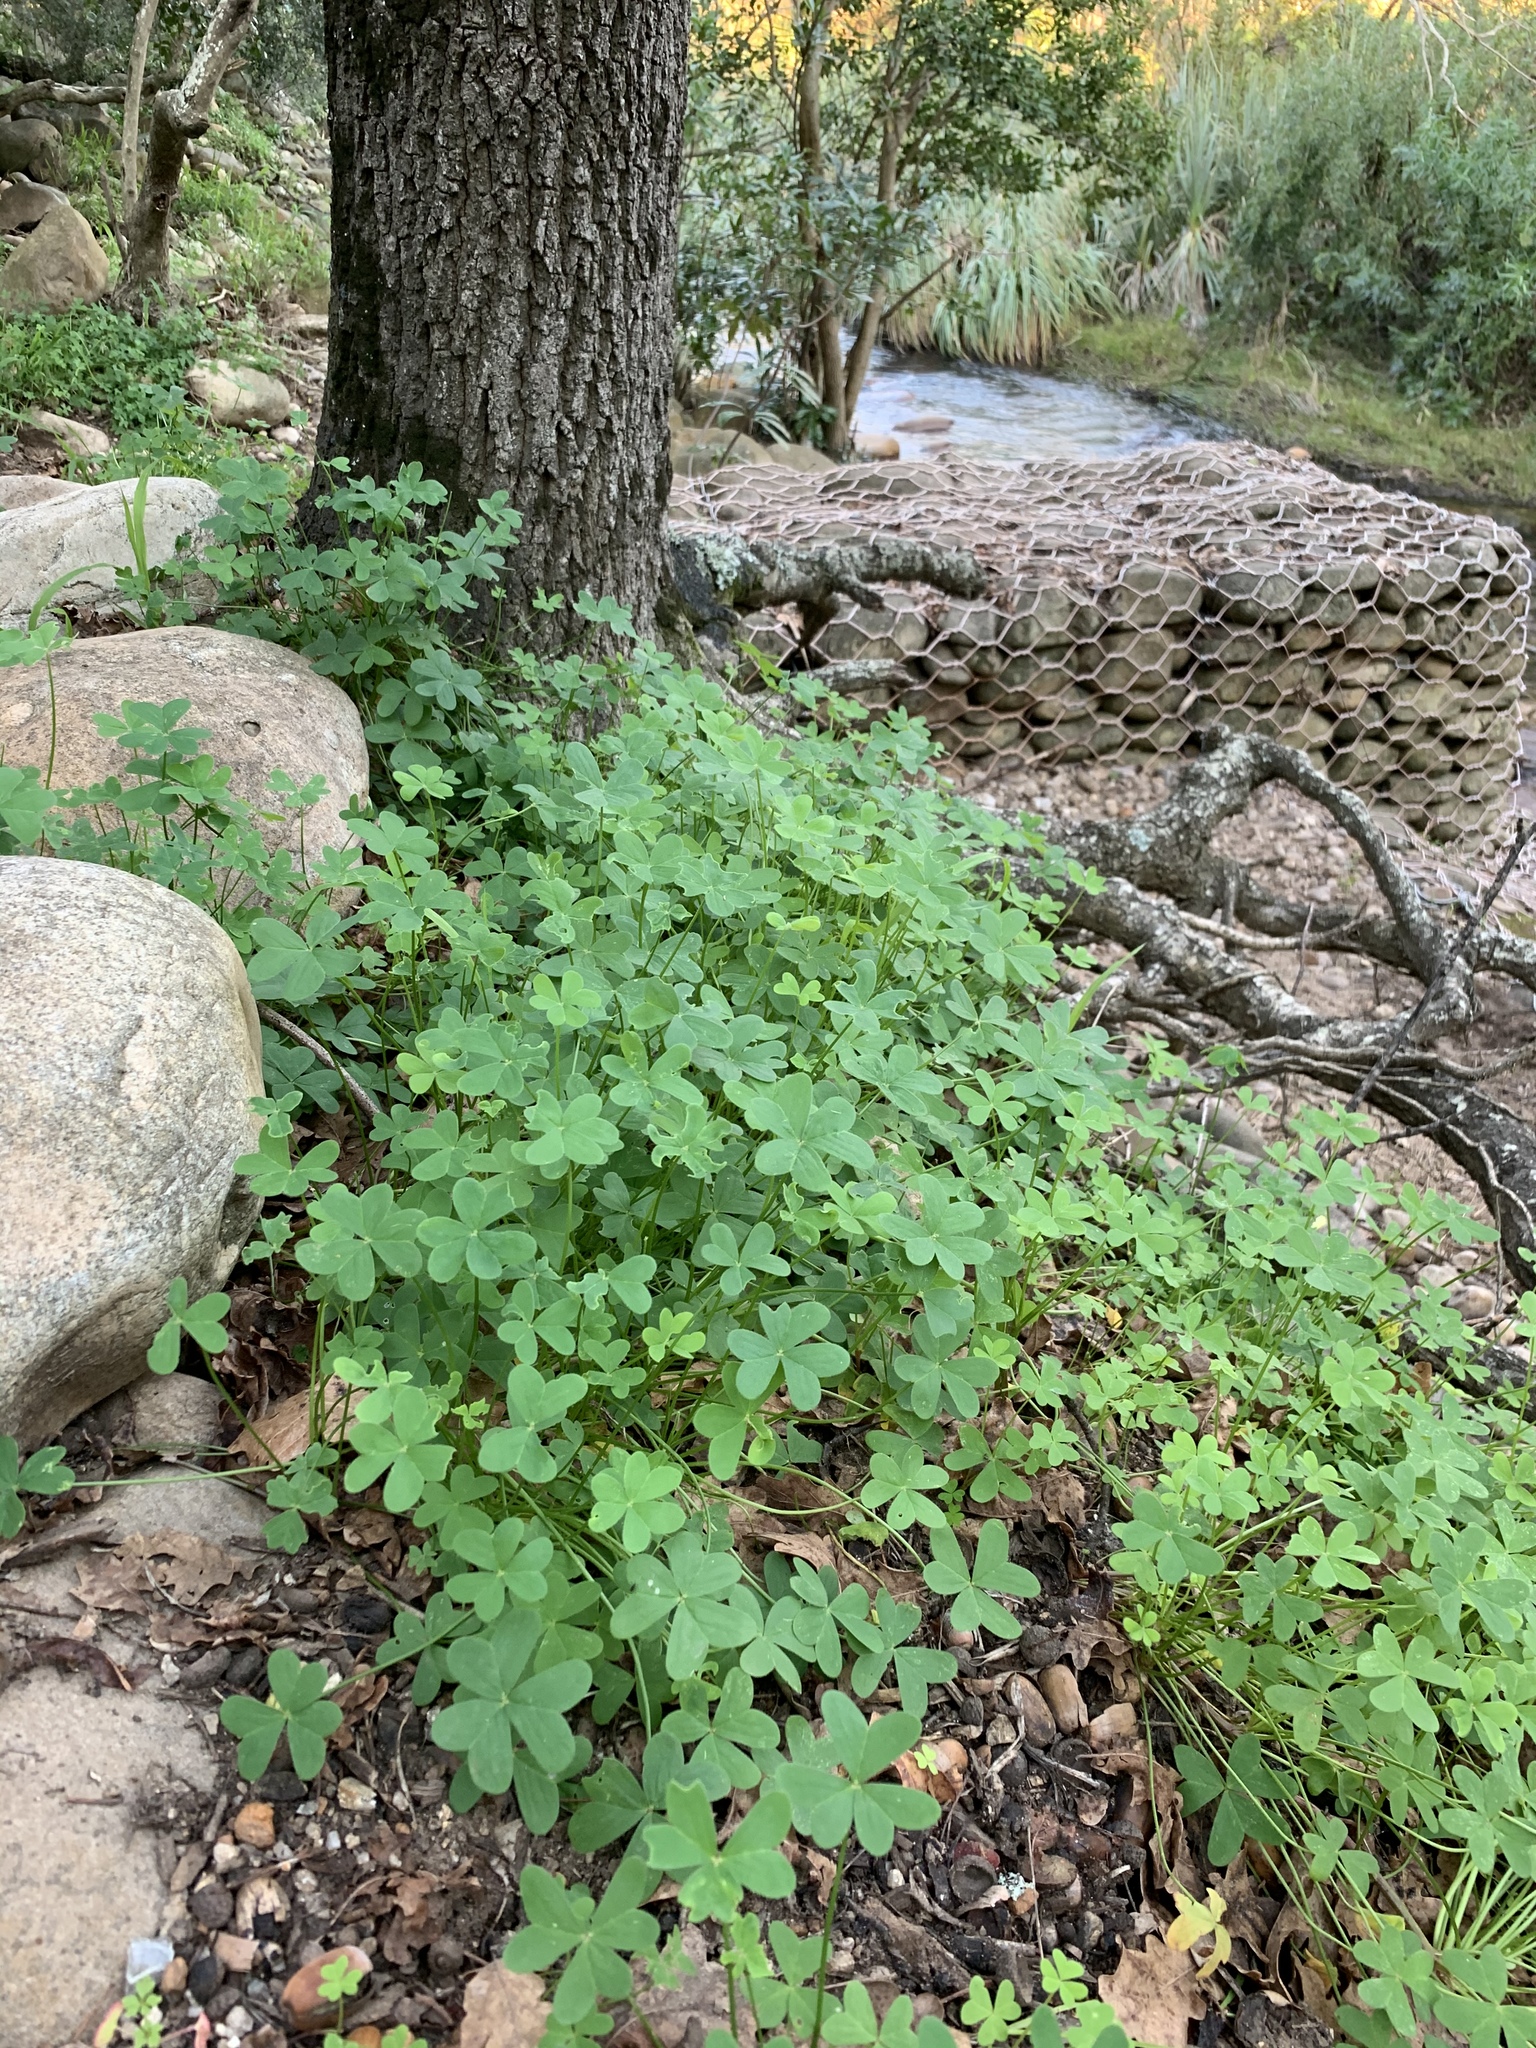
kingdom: Plantae
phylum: Tracheophyta
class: Magnoliopsida
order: Oxalidales
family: Oxalidaceae
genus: Oxalis
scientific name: Oxalis pes-caprae
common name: Bermuda-buttercup
